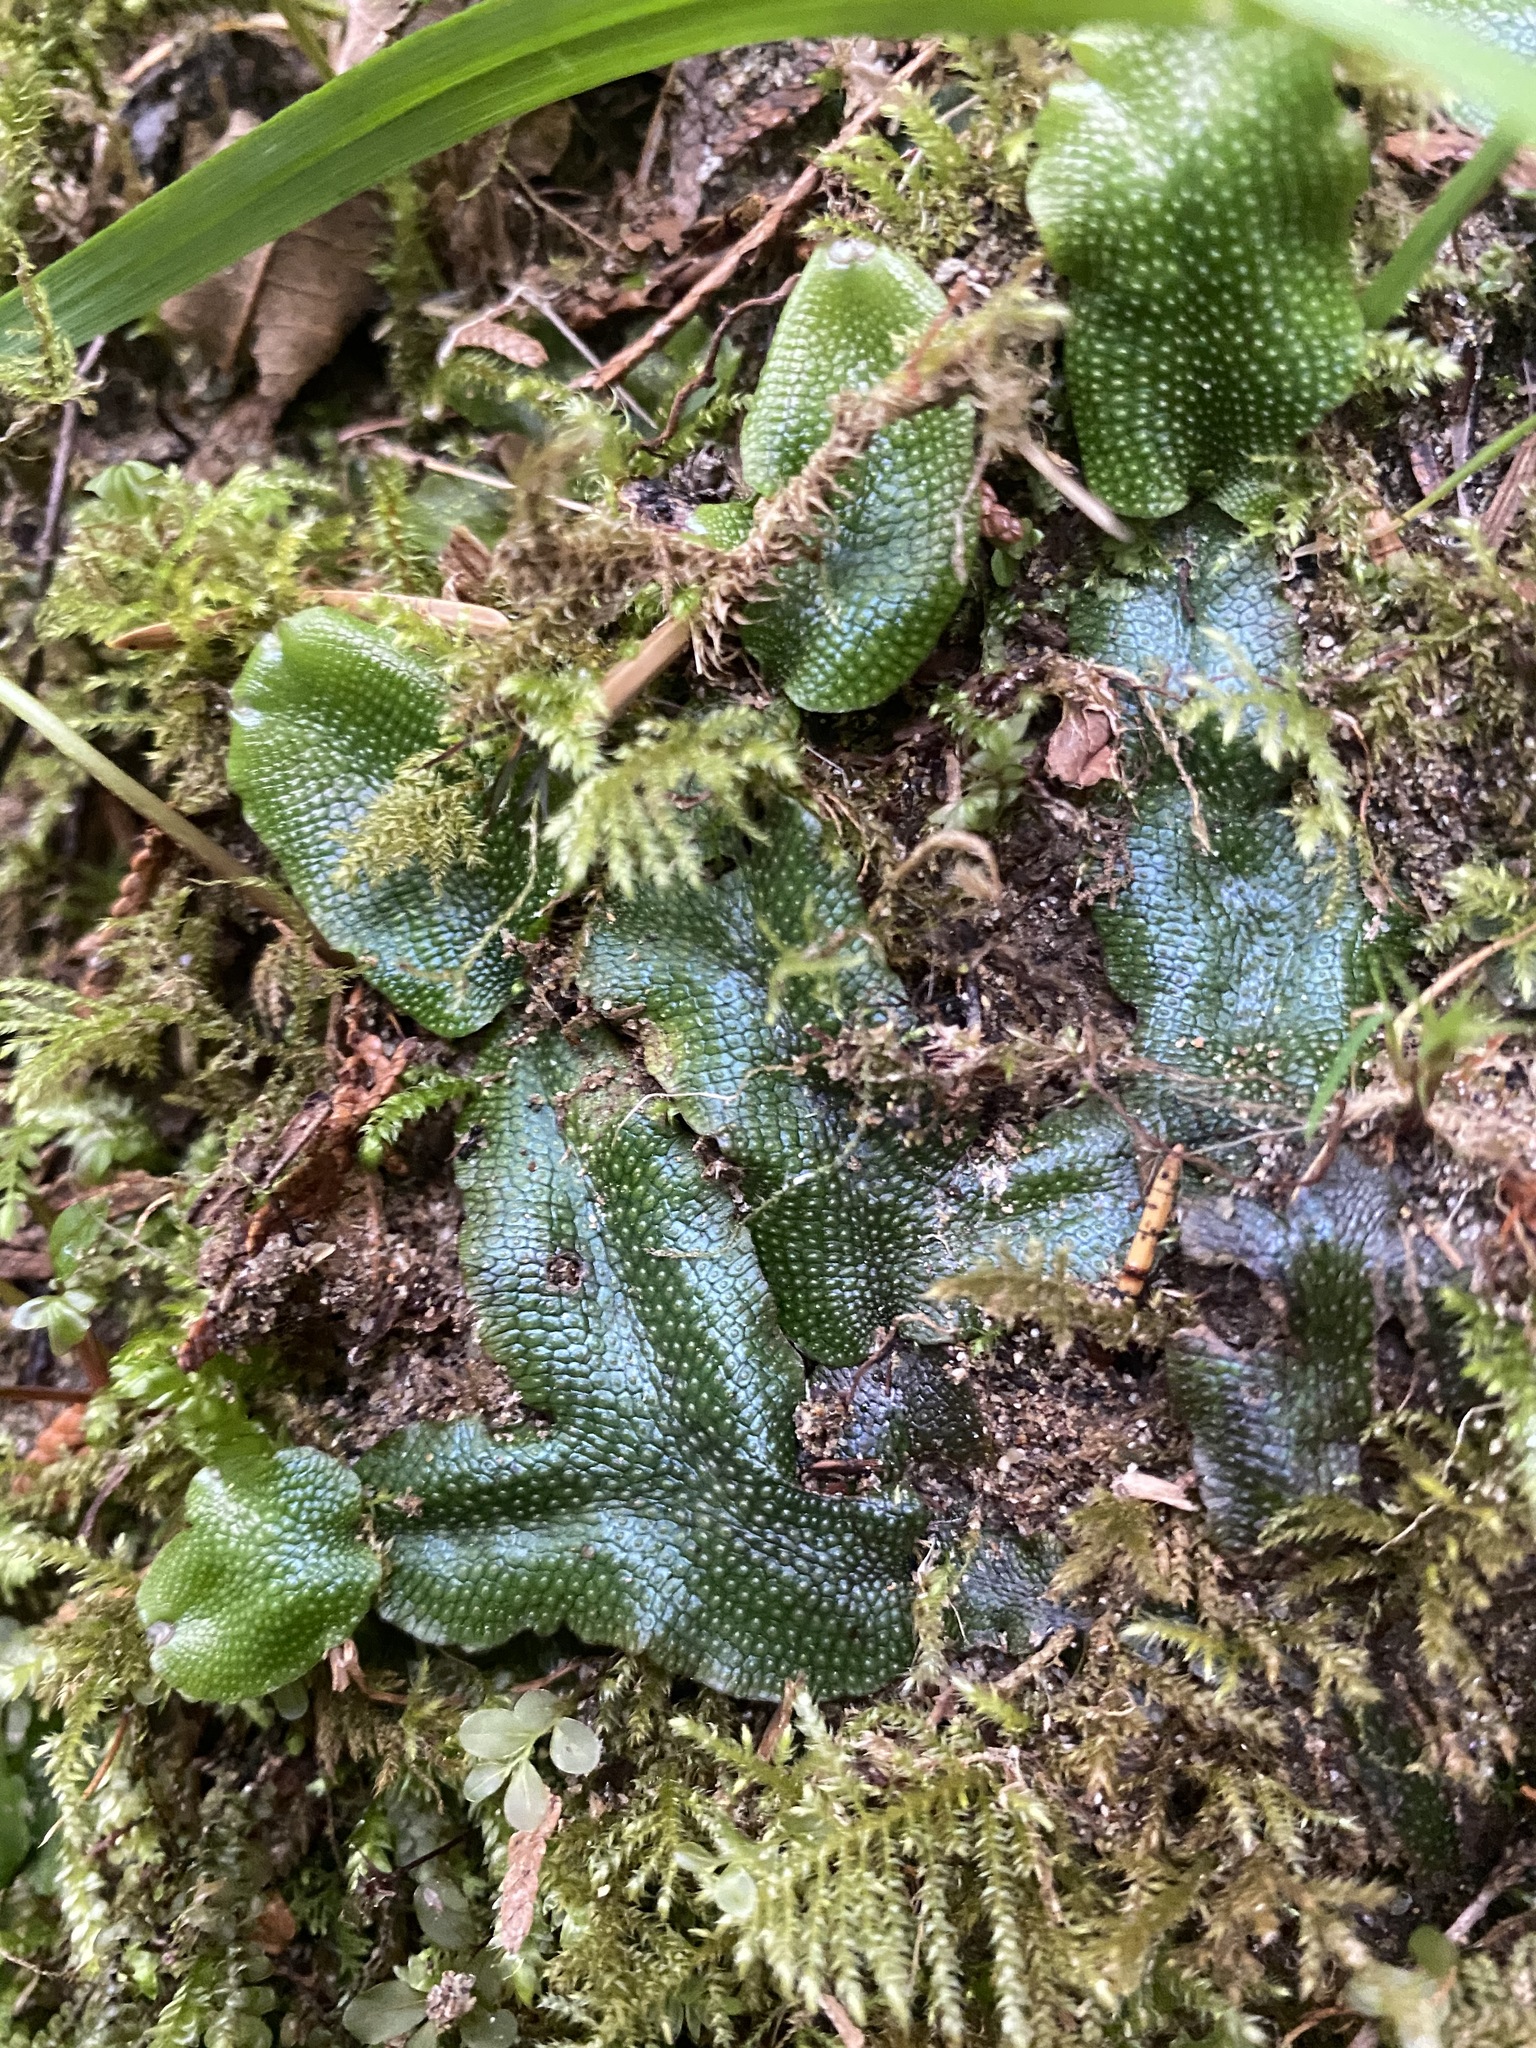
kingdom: Plantae
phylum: Marchantiophyta
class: Marchantiopsida
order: Marchantiales
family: Conocephalaceae
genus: Conocephalum
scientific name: Conocephalum salebrosum
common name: Cat-tongue liverwort
